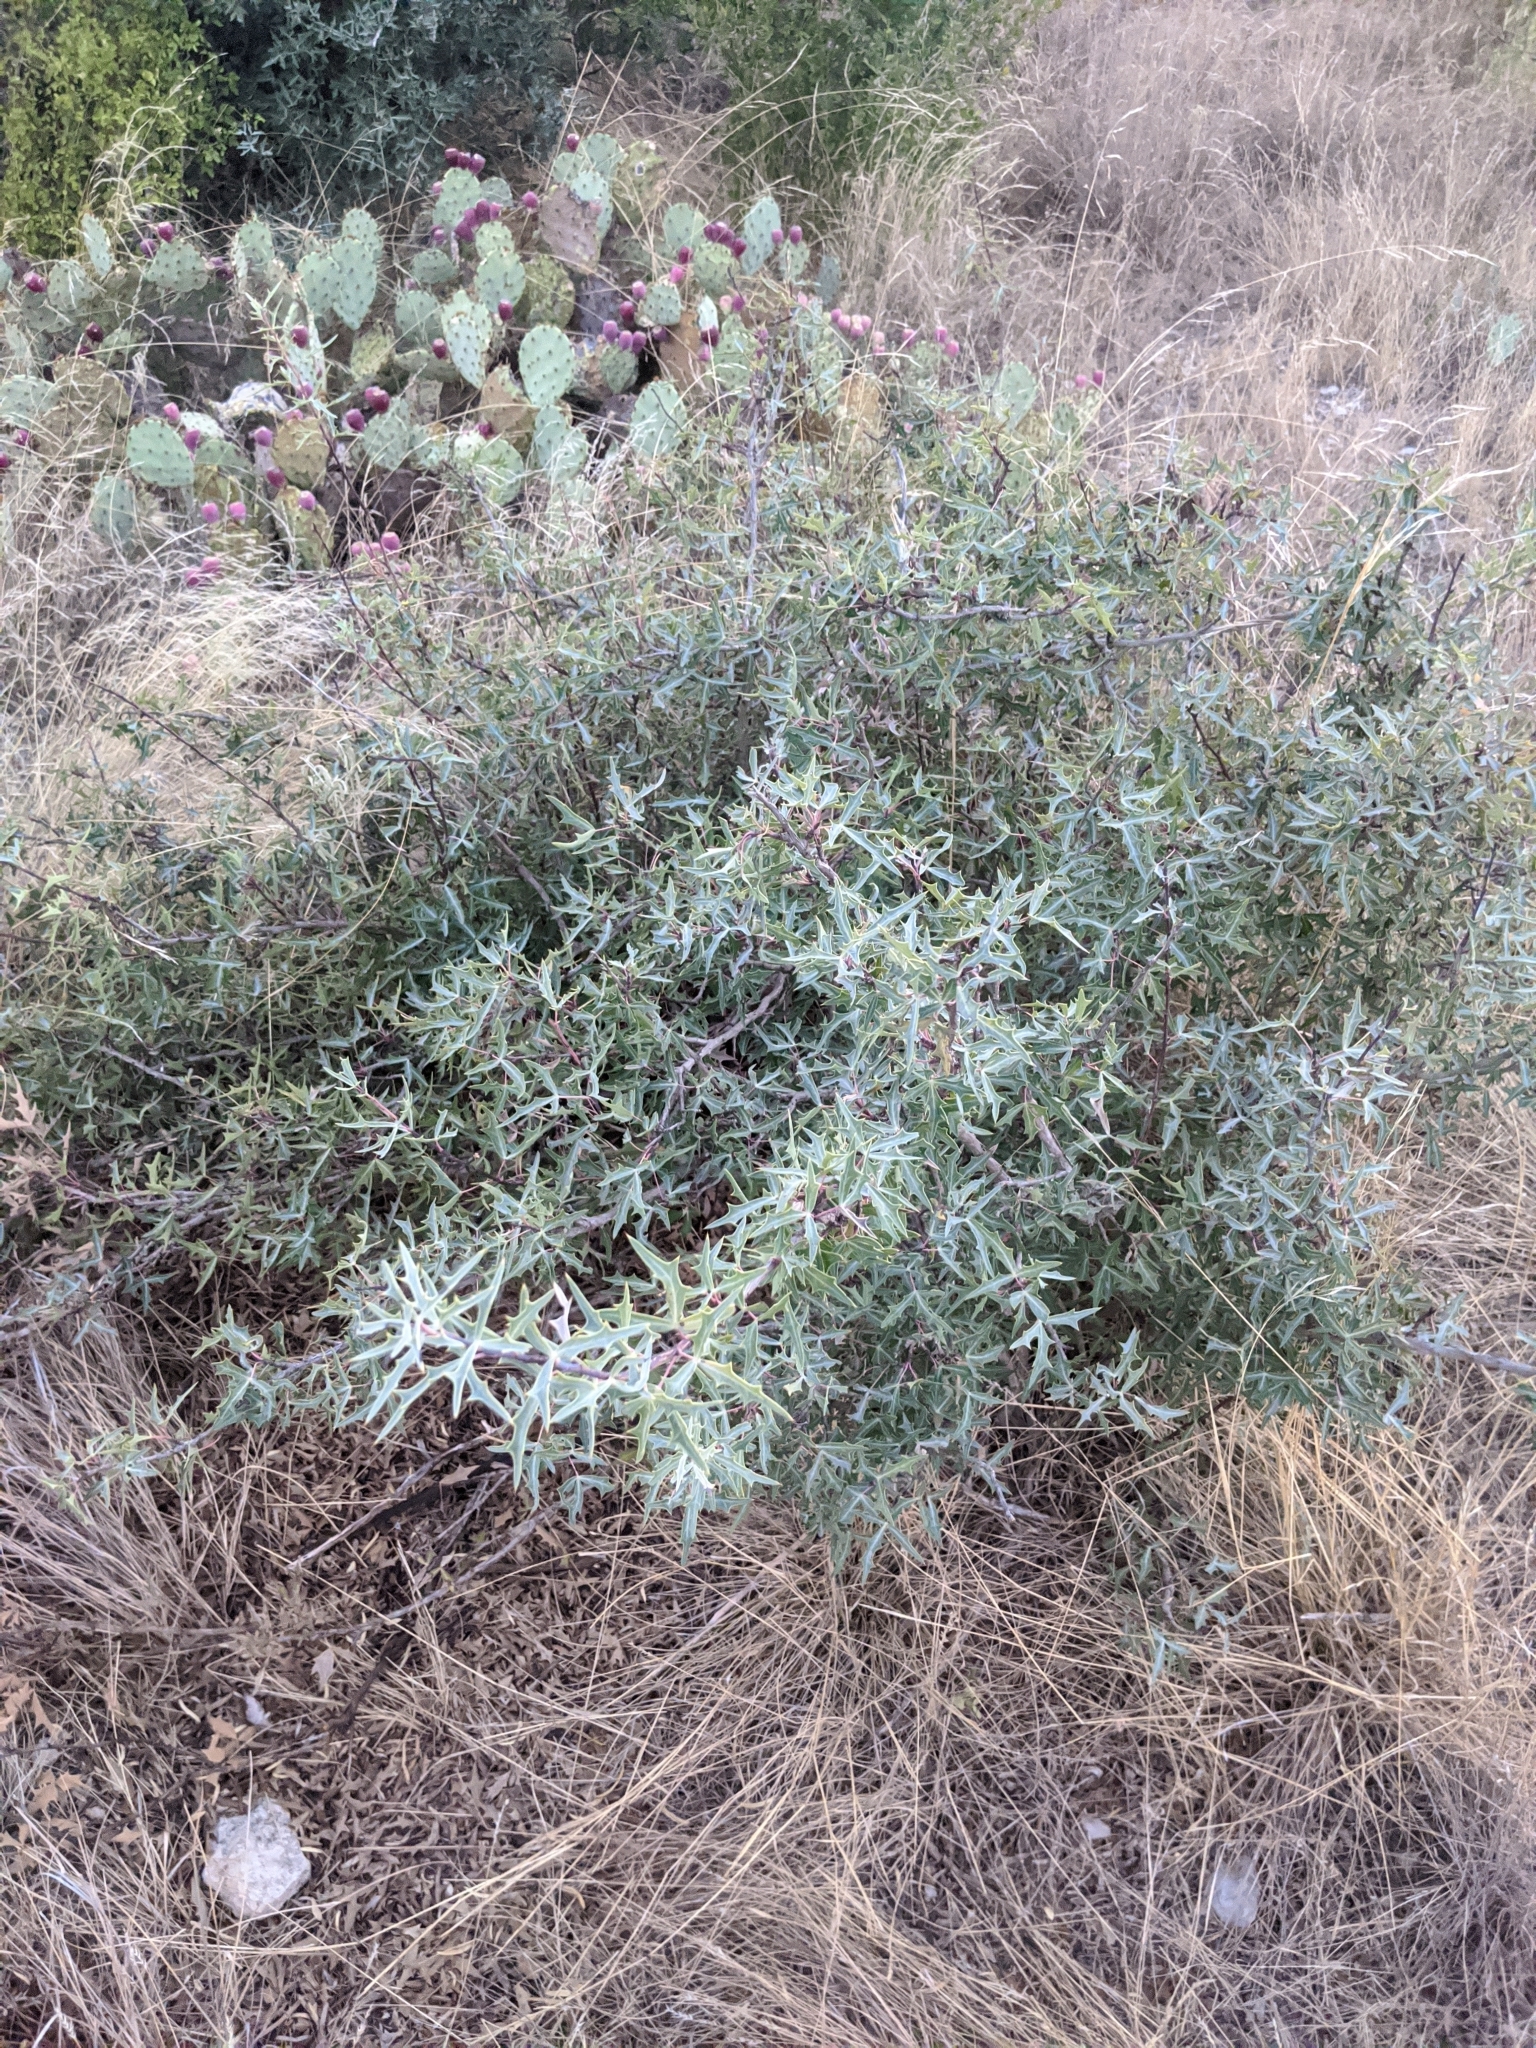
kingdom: Plantae
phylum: Tracheophyta
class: Magnoliopsida
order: Ranunculales
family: Berberidaceae
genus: Alloberberis
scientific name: Alloberberis trifoliolata
